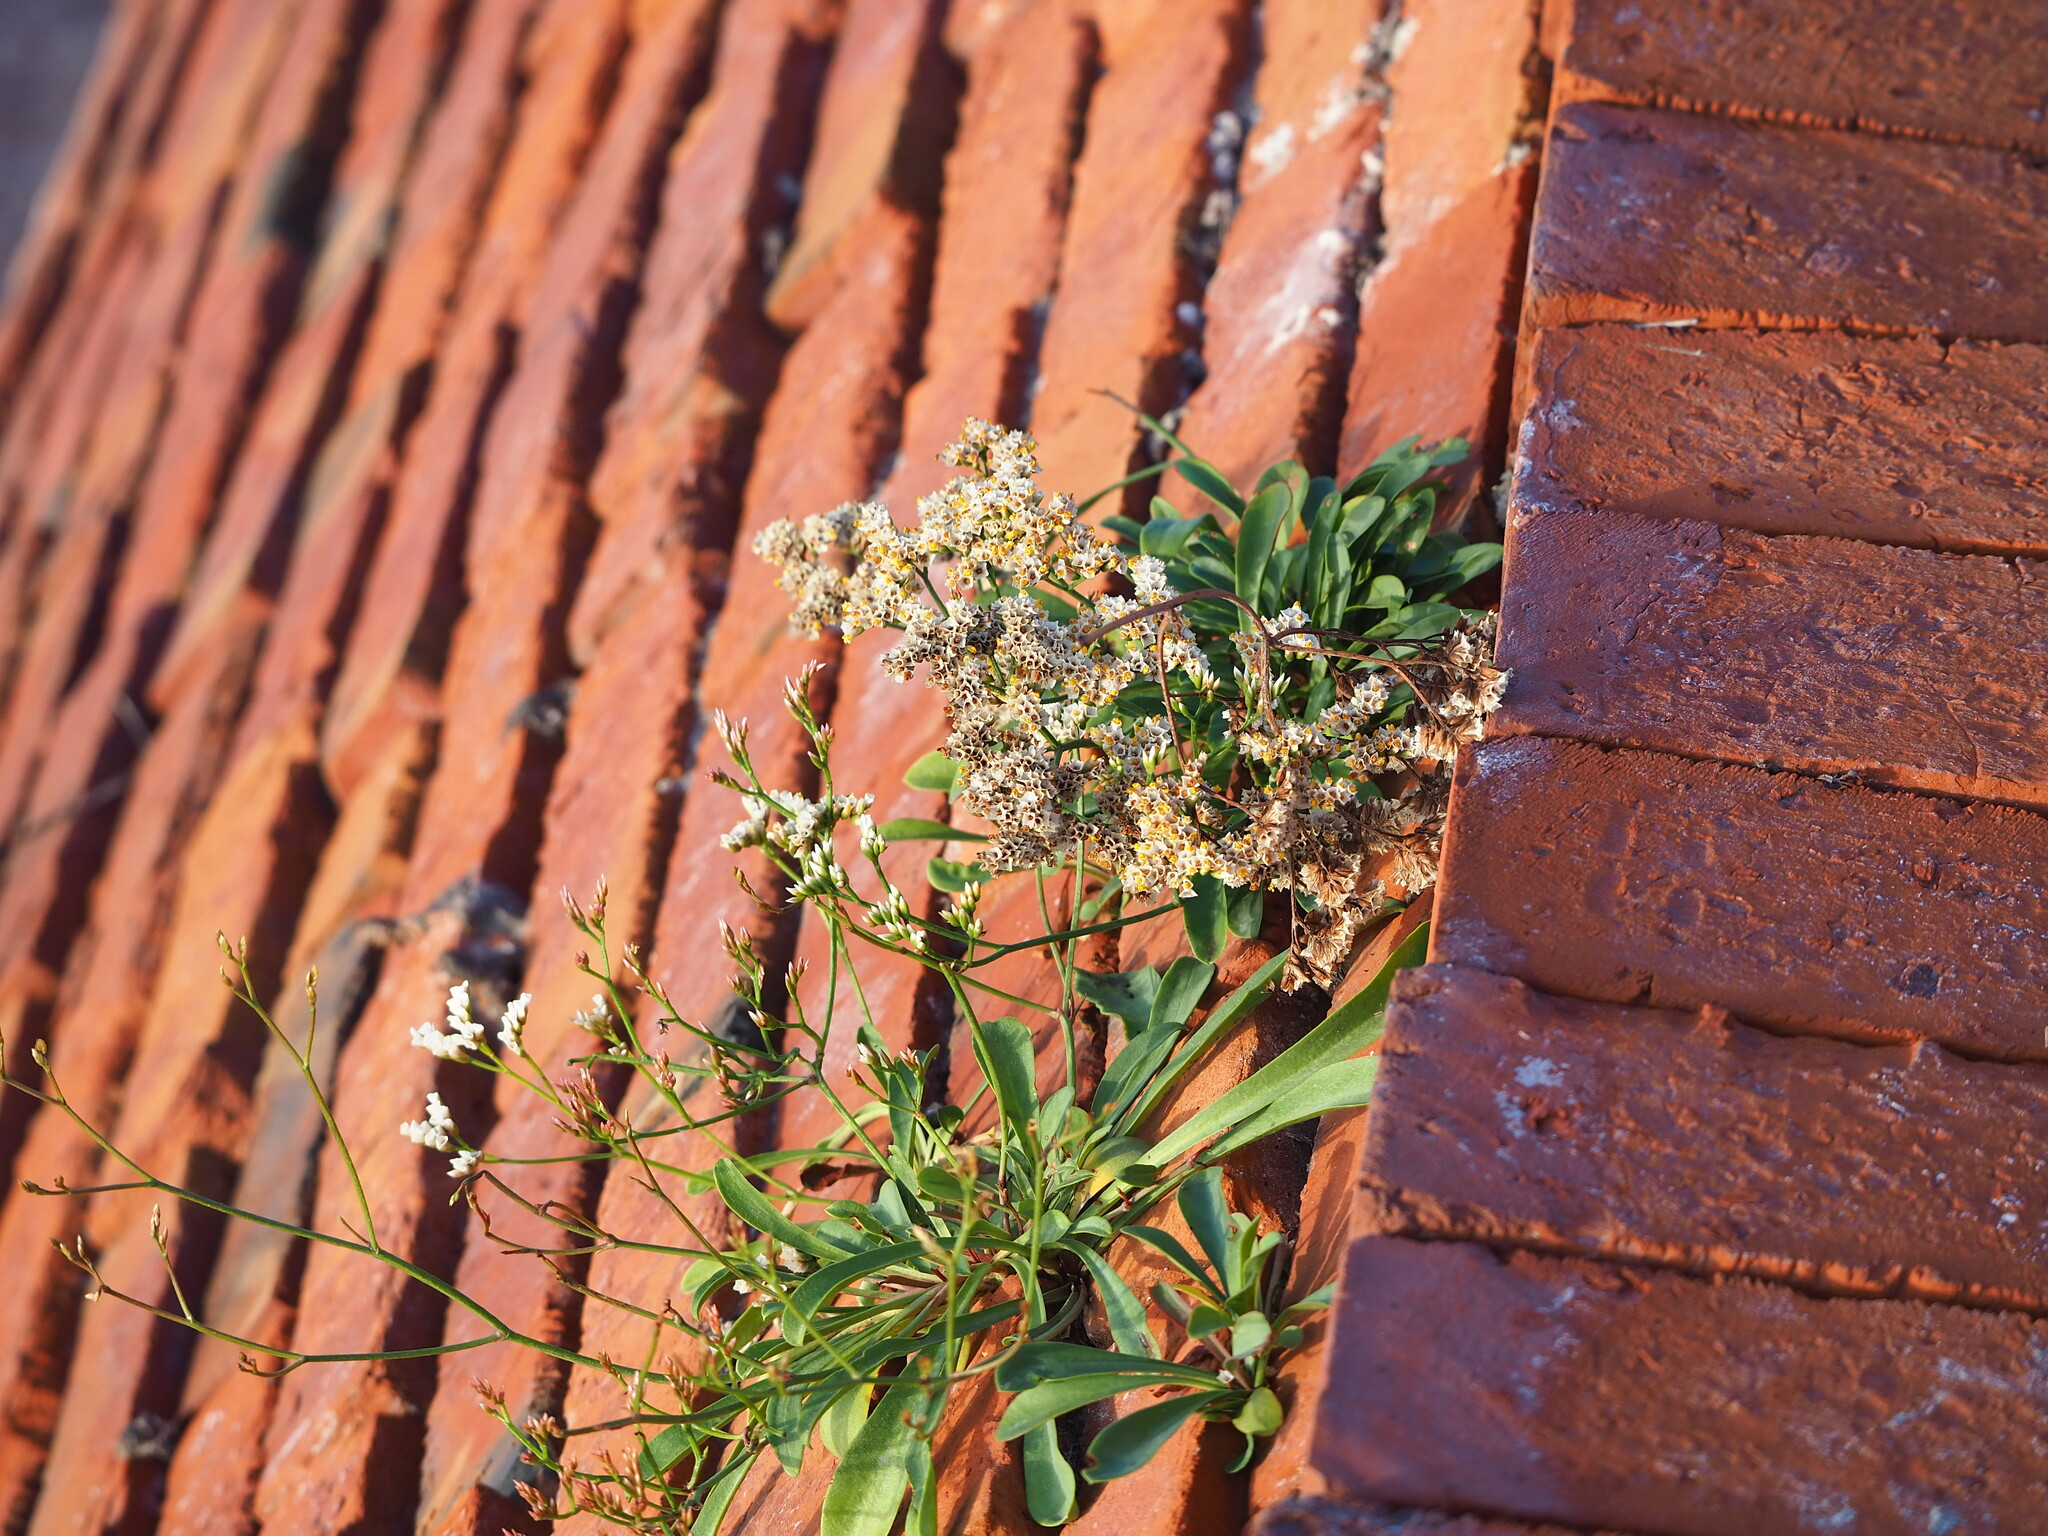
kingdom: Plantae
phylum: Tracheophyta
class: Magnoliopsida
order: Caryophyllales
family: Plumbaginaceae
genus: Limonium
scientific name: Limonium sinense
